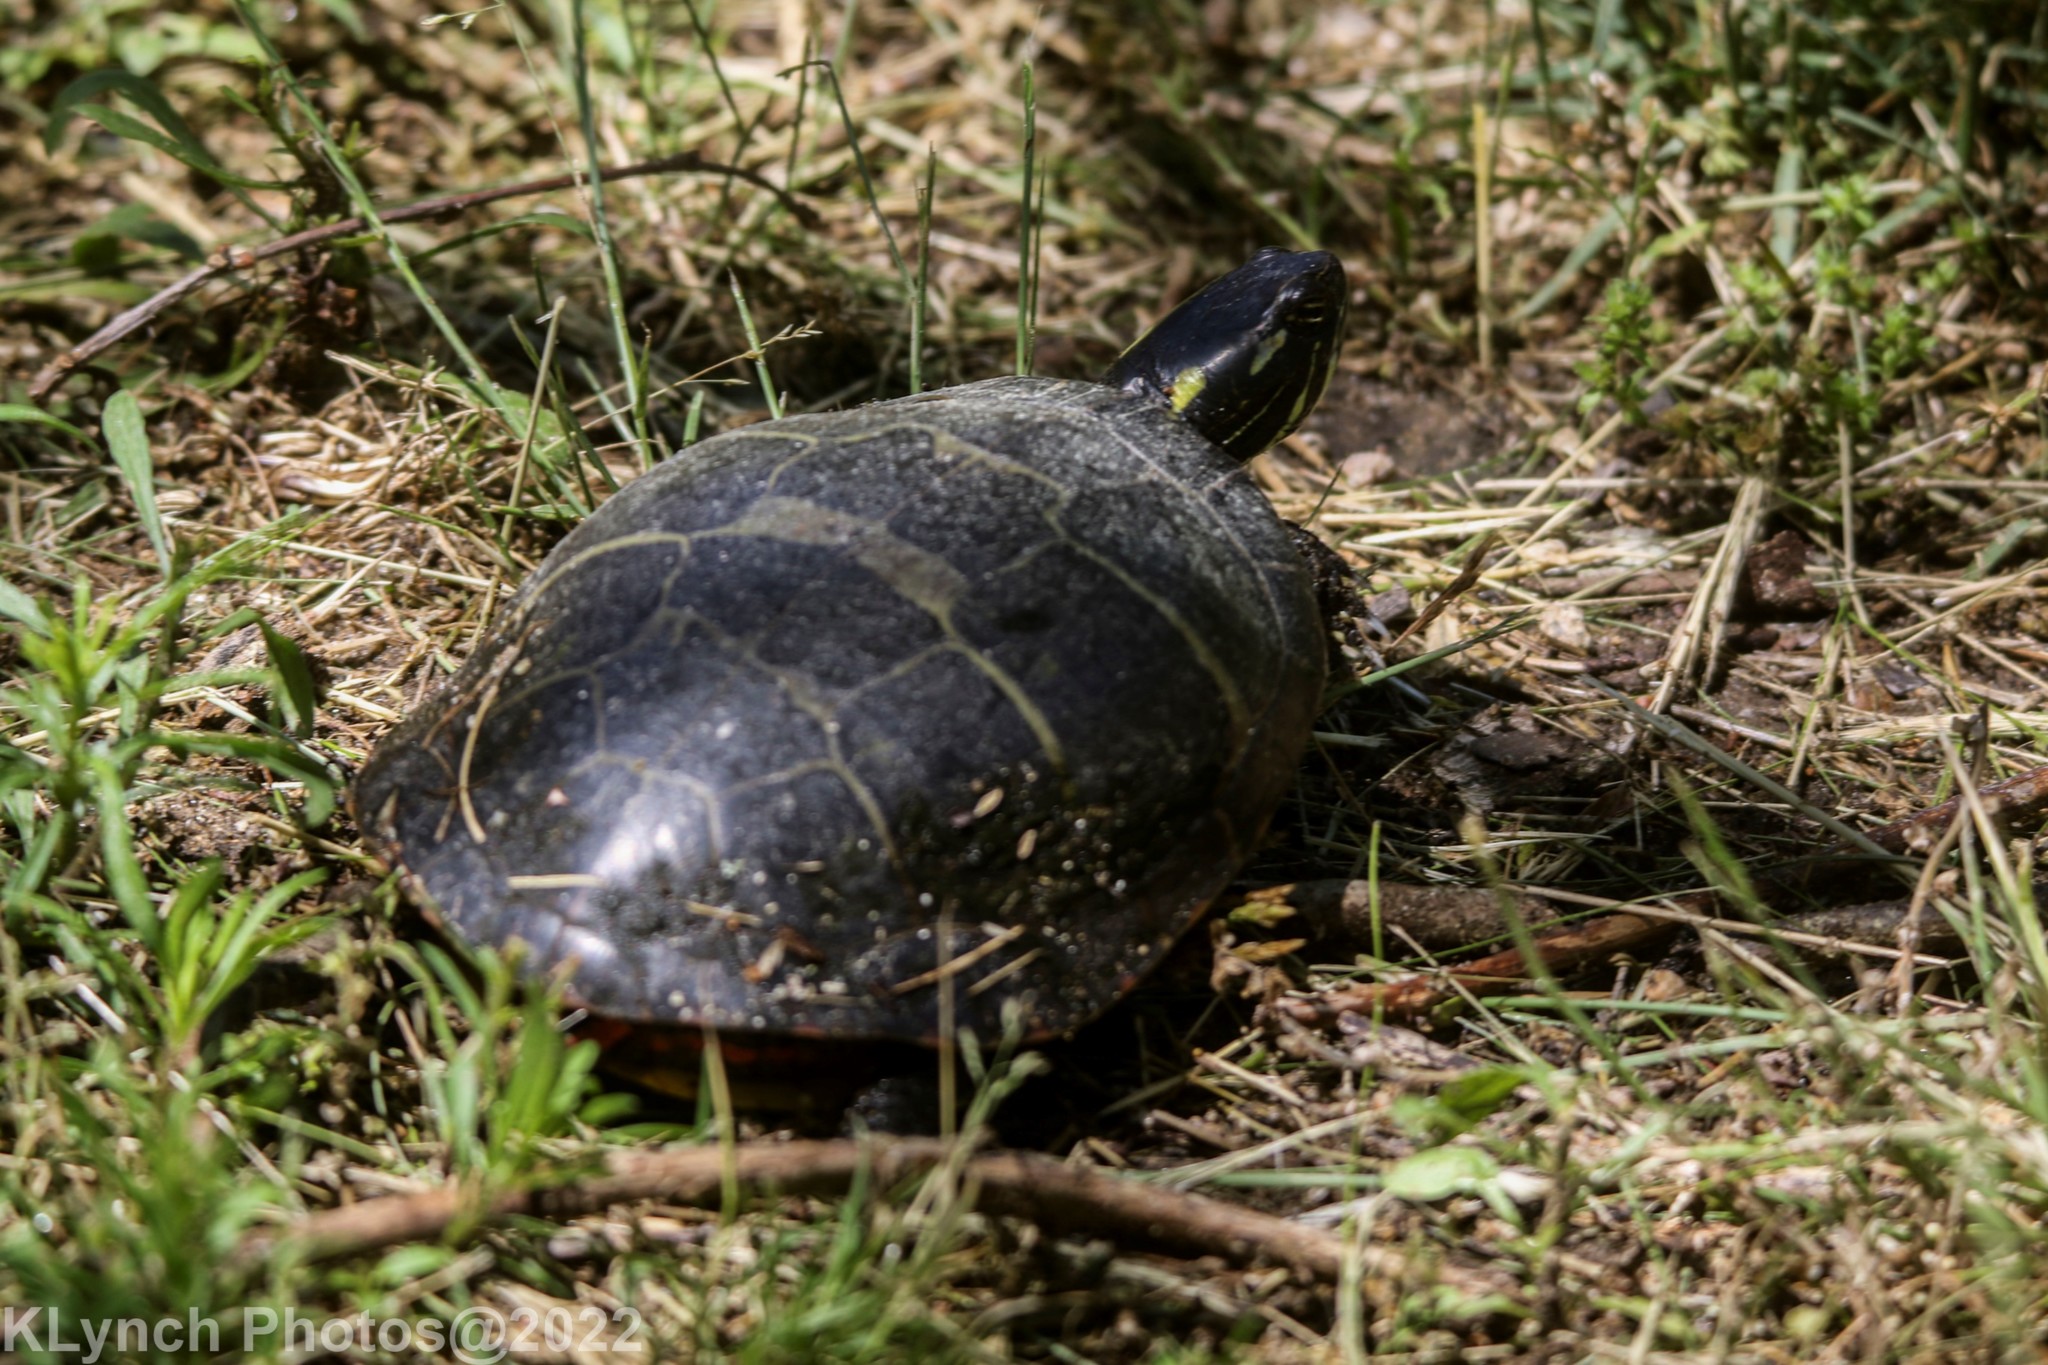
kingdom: Animalia
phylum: Chordata
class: Testudines
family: Emydidae
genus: Chrysemys
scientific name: Chrysemys picta
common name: Painted turtle
